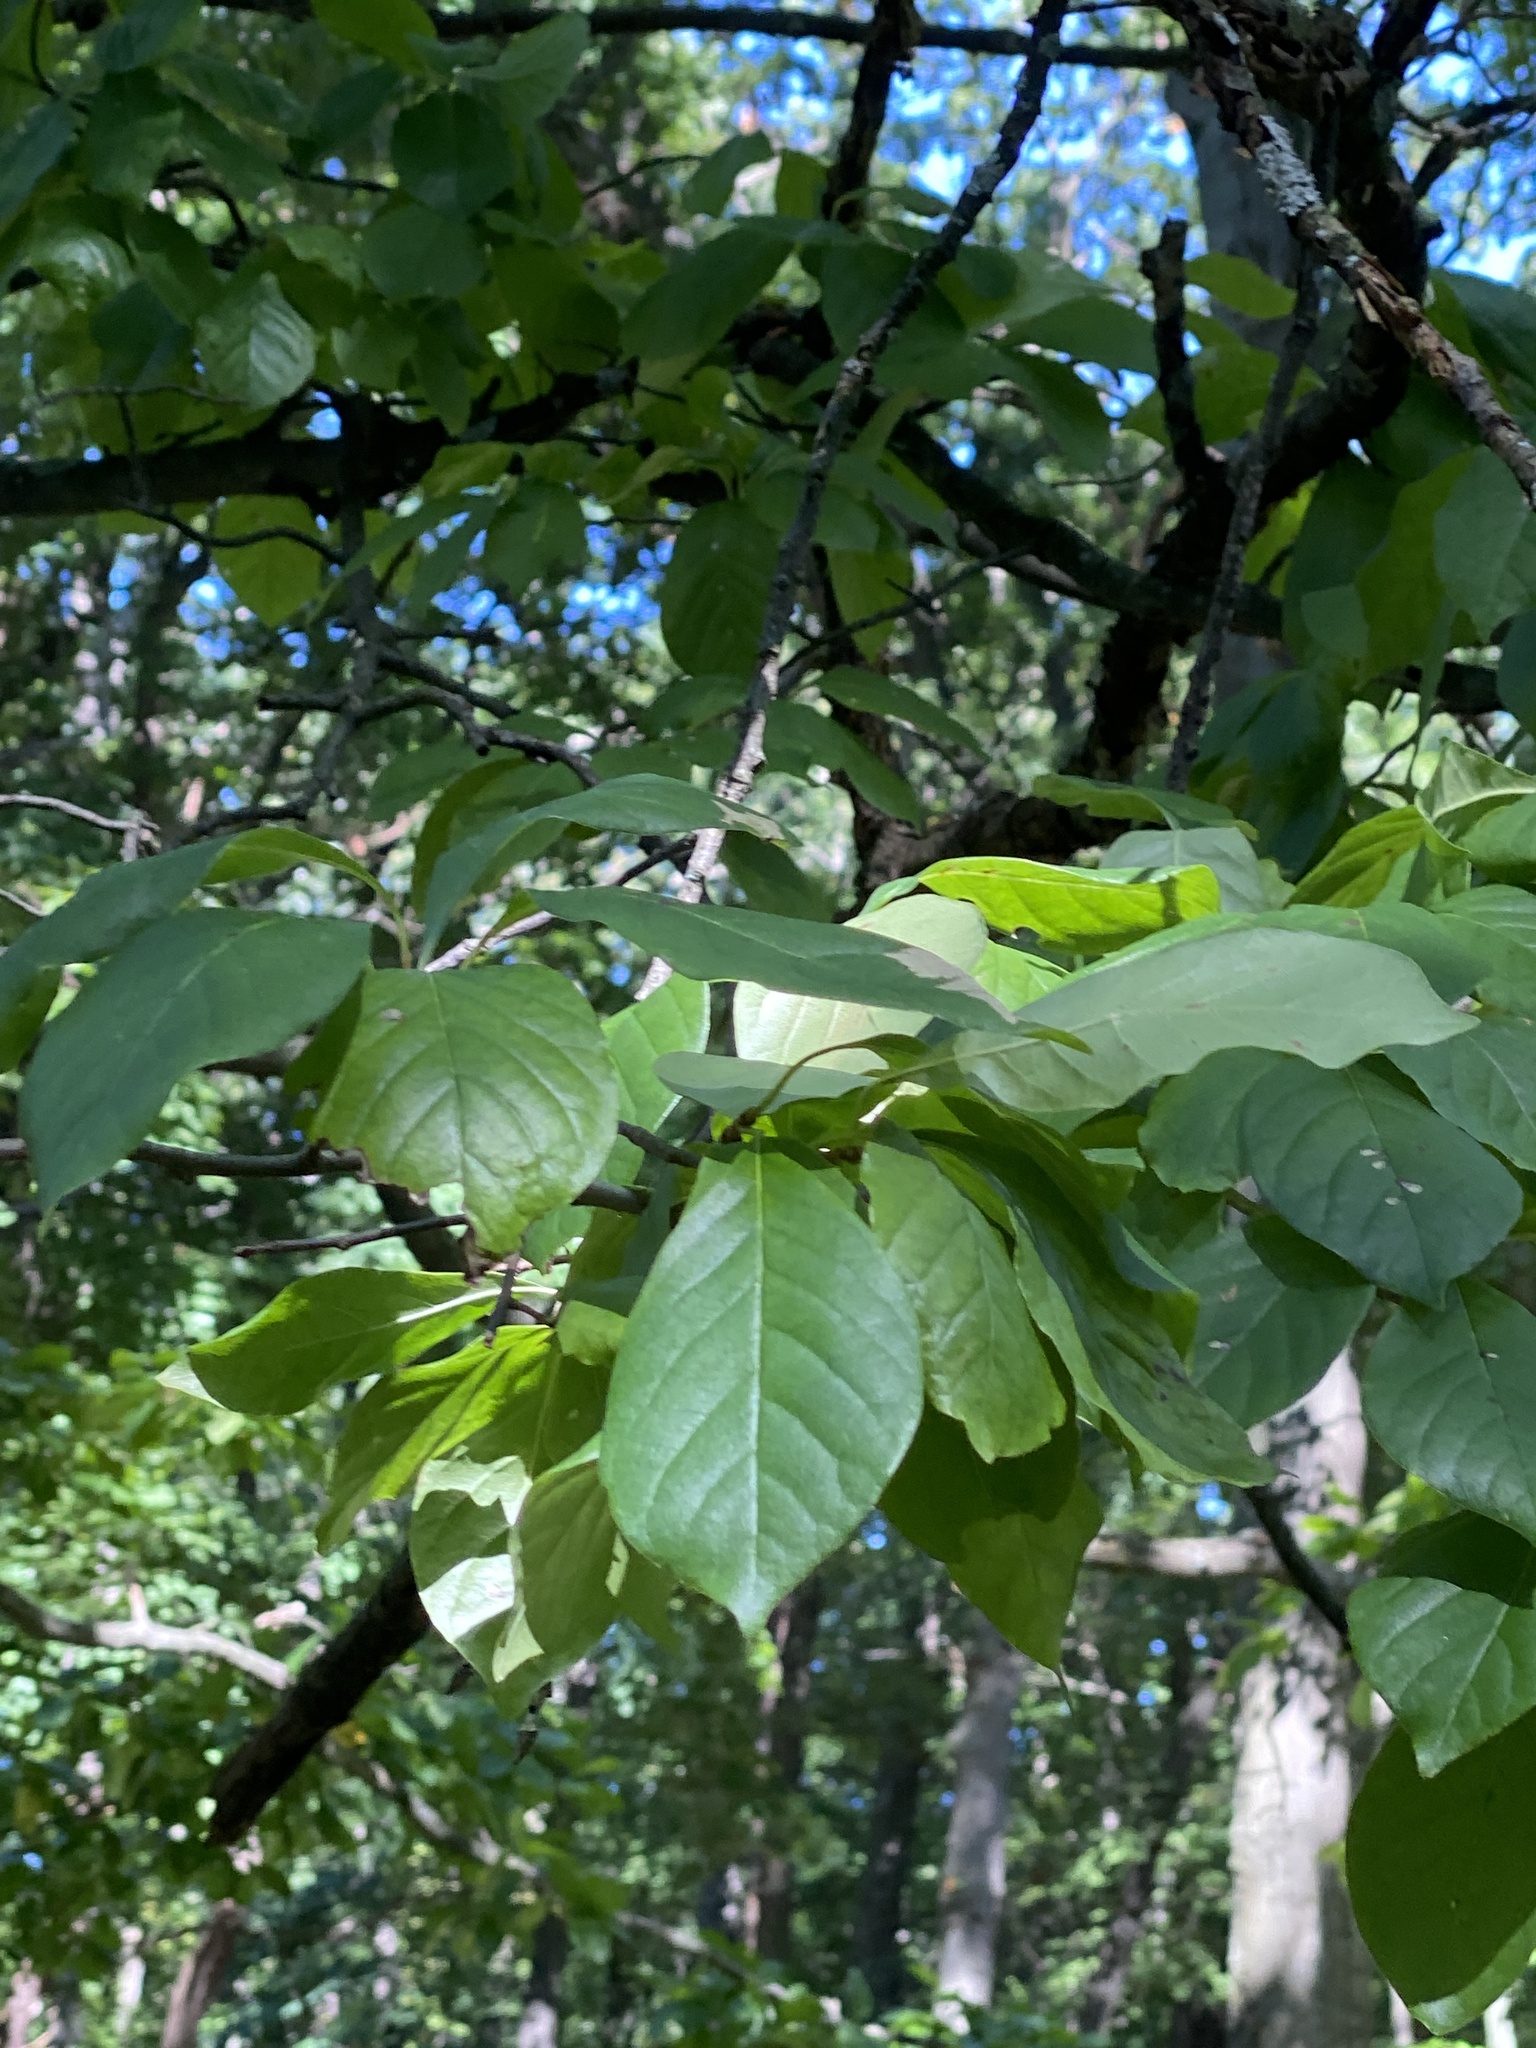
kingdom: Plantae
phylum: Tracheophyta
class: Magnoliopsida
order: Cornales
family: Nyssaceae
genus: Nyssa
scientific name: Nyssa sylvatica
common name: Black tupelo
